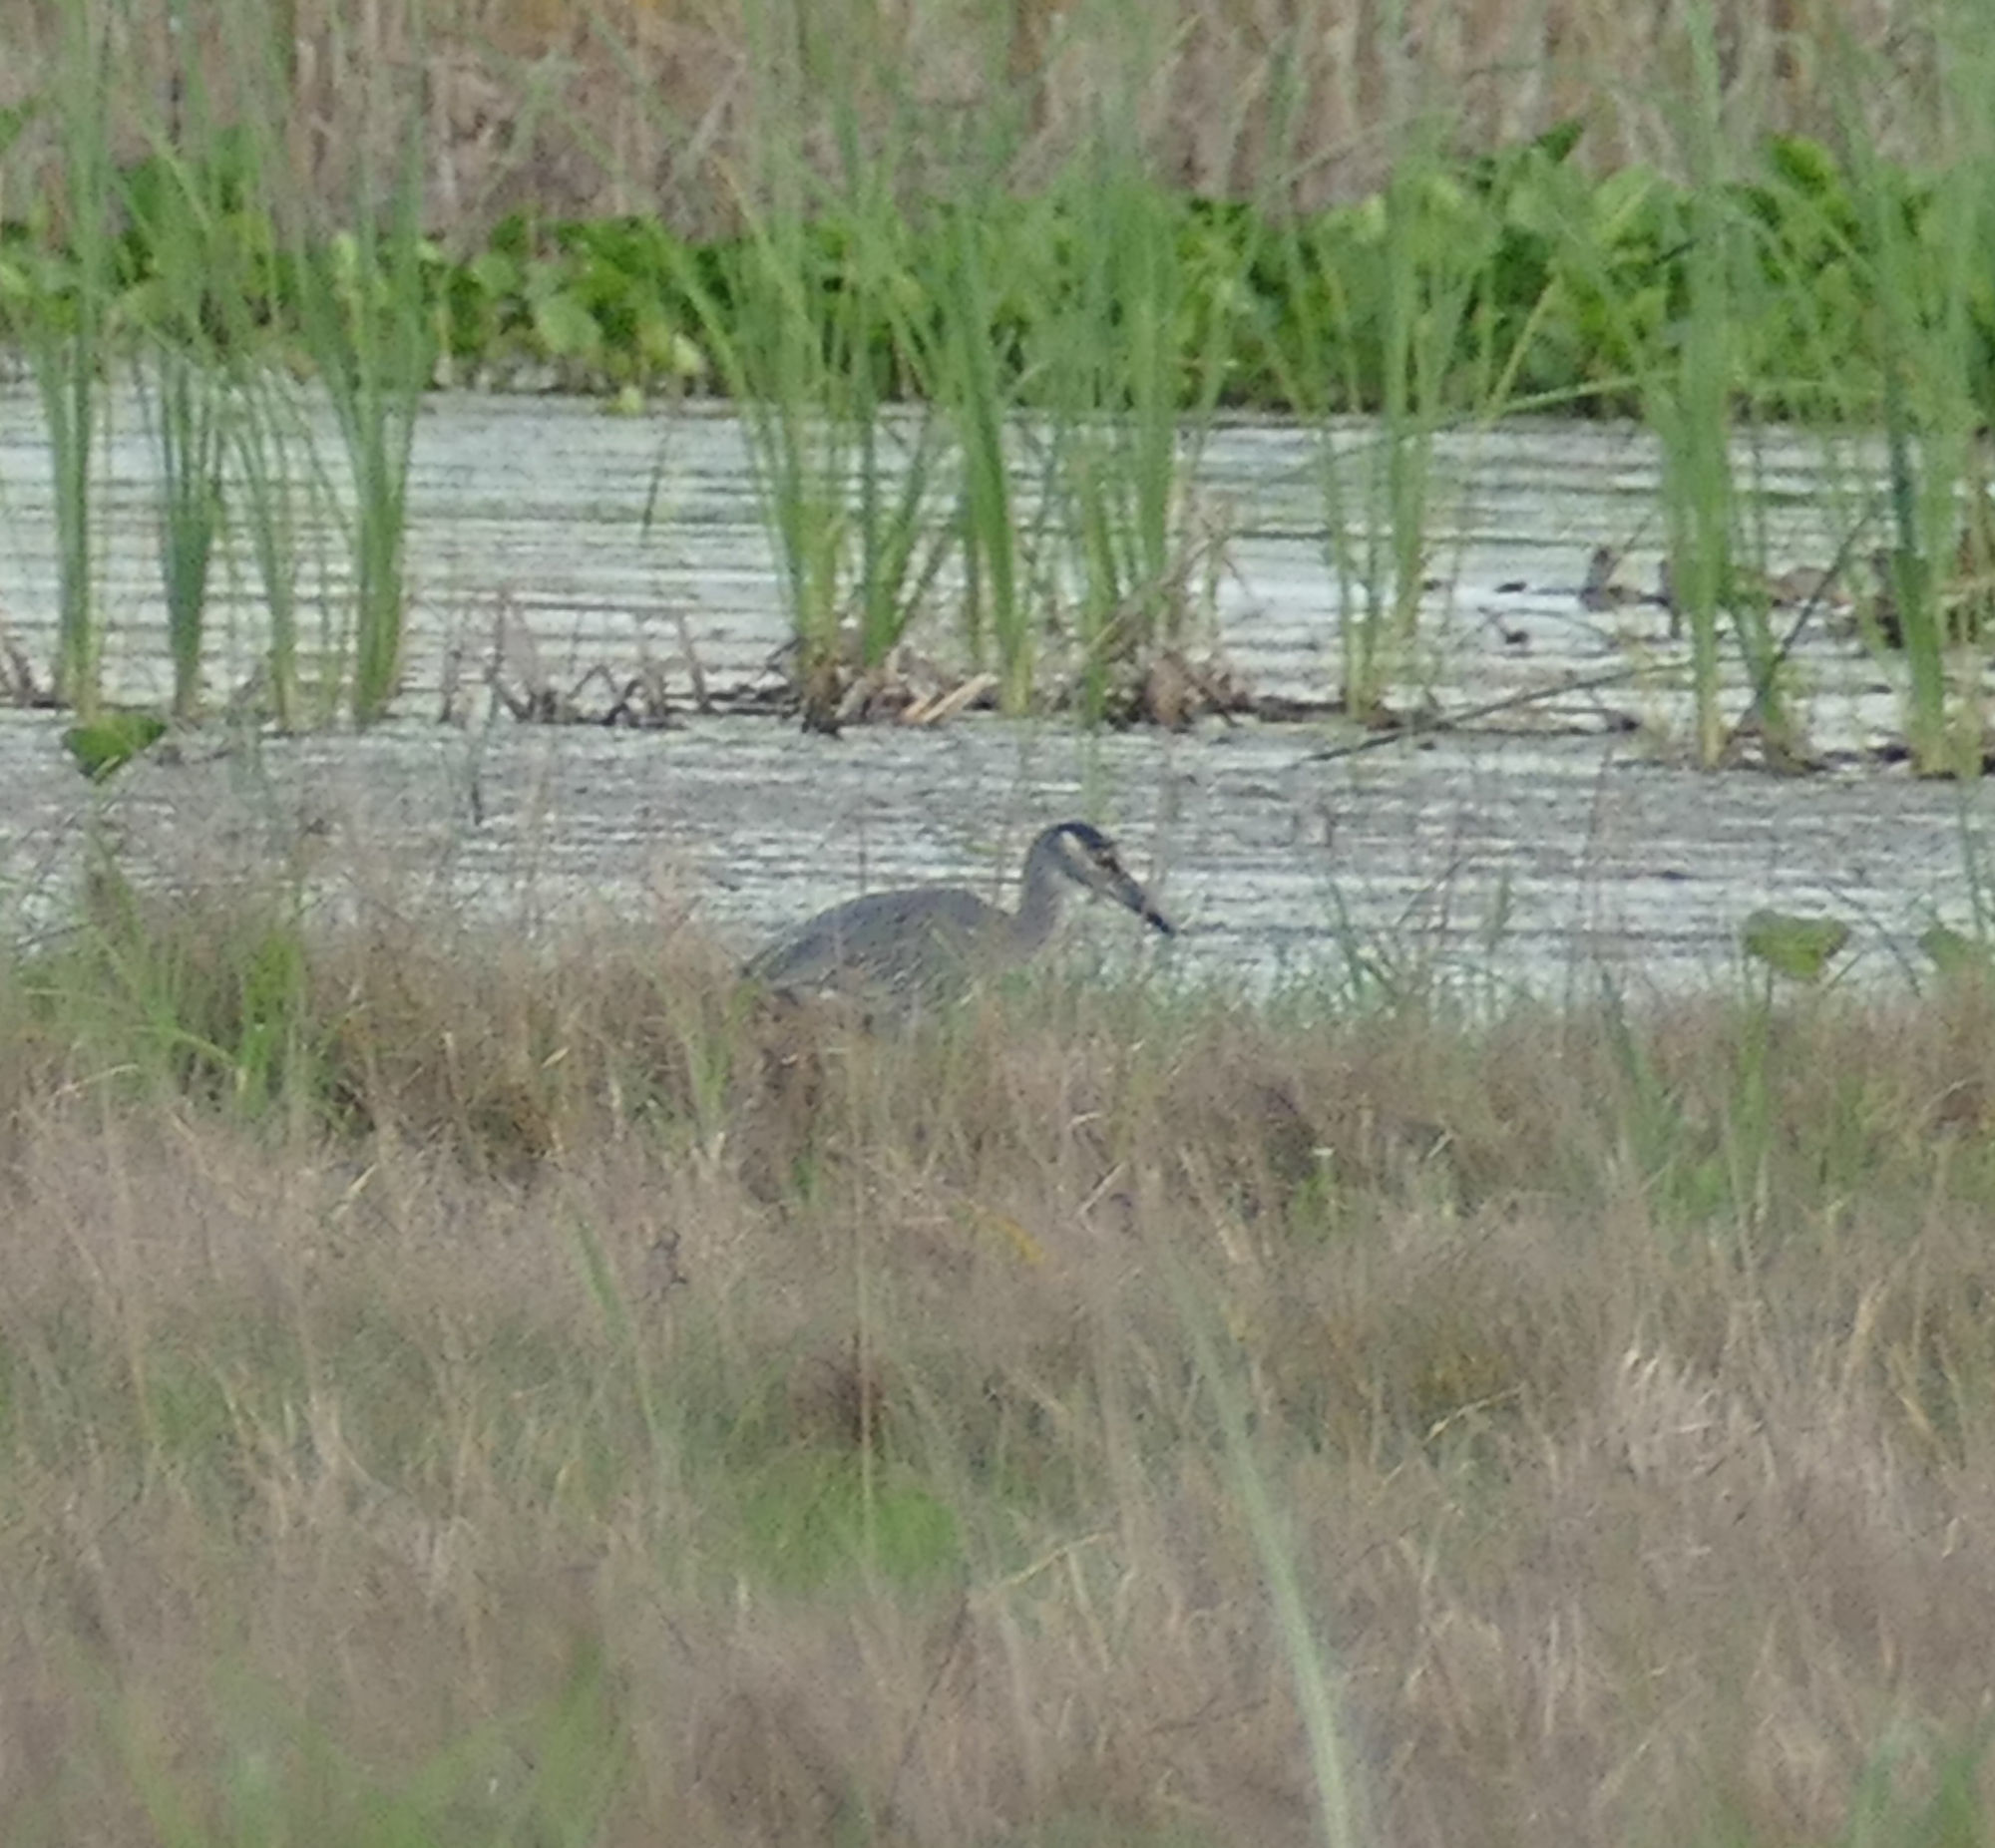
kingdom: Animalia
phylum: Chordata
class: Aves
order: Pelecaniformes
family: Ardeidae
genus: Nyctanassa
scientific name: Nyctanassa violacea
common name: Yellow-crowned night heron
